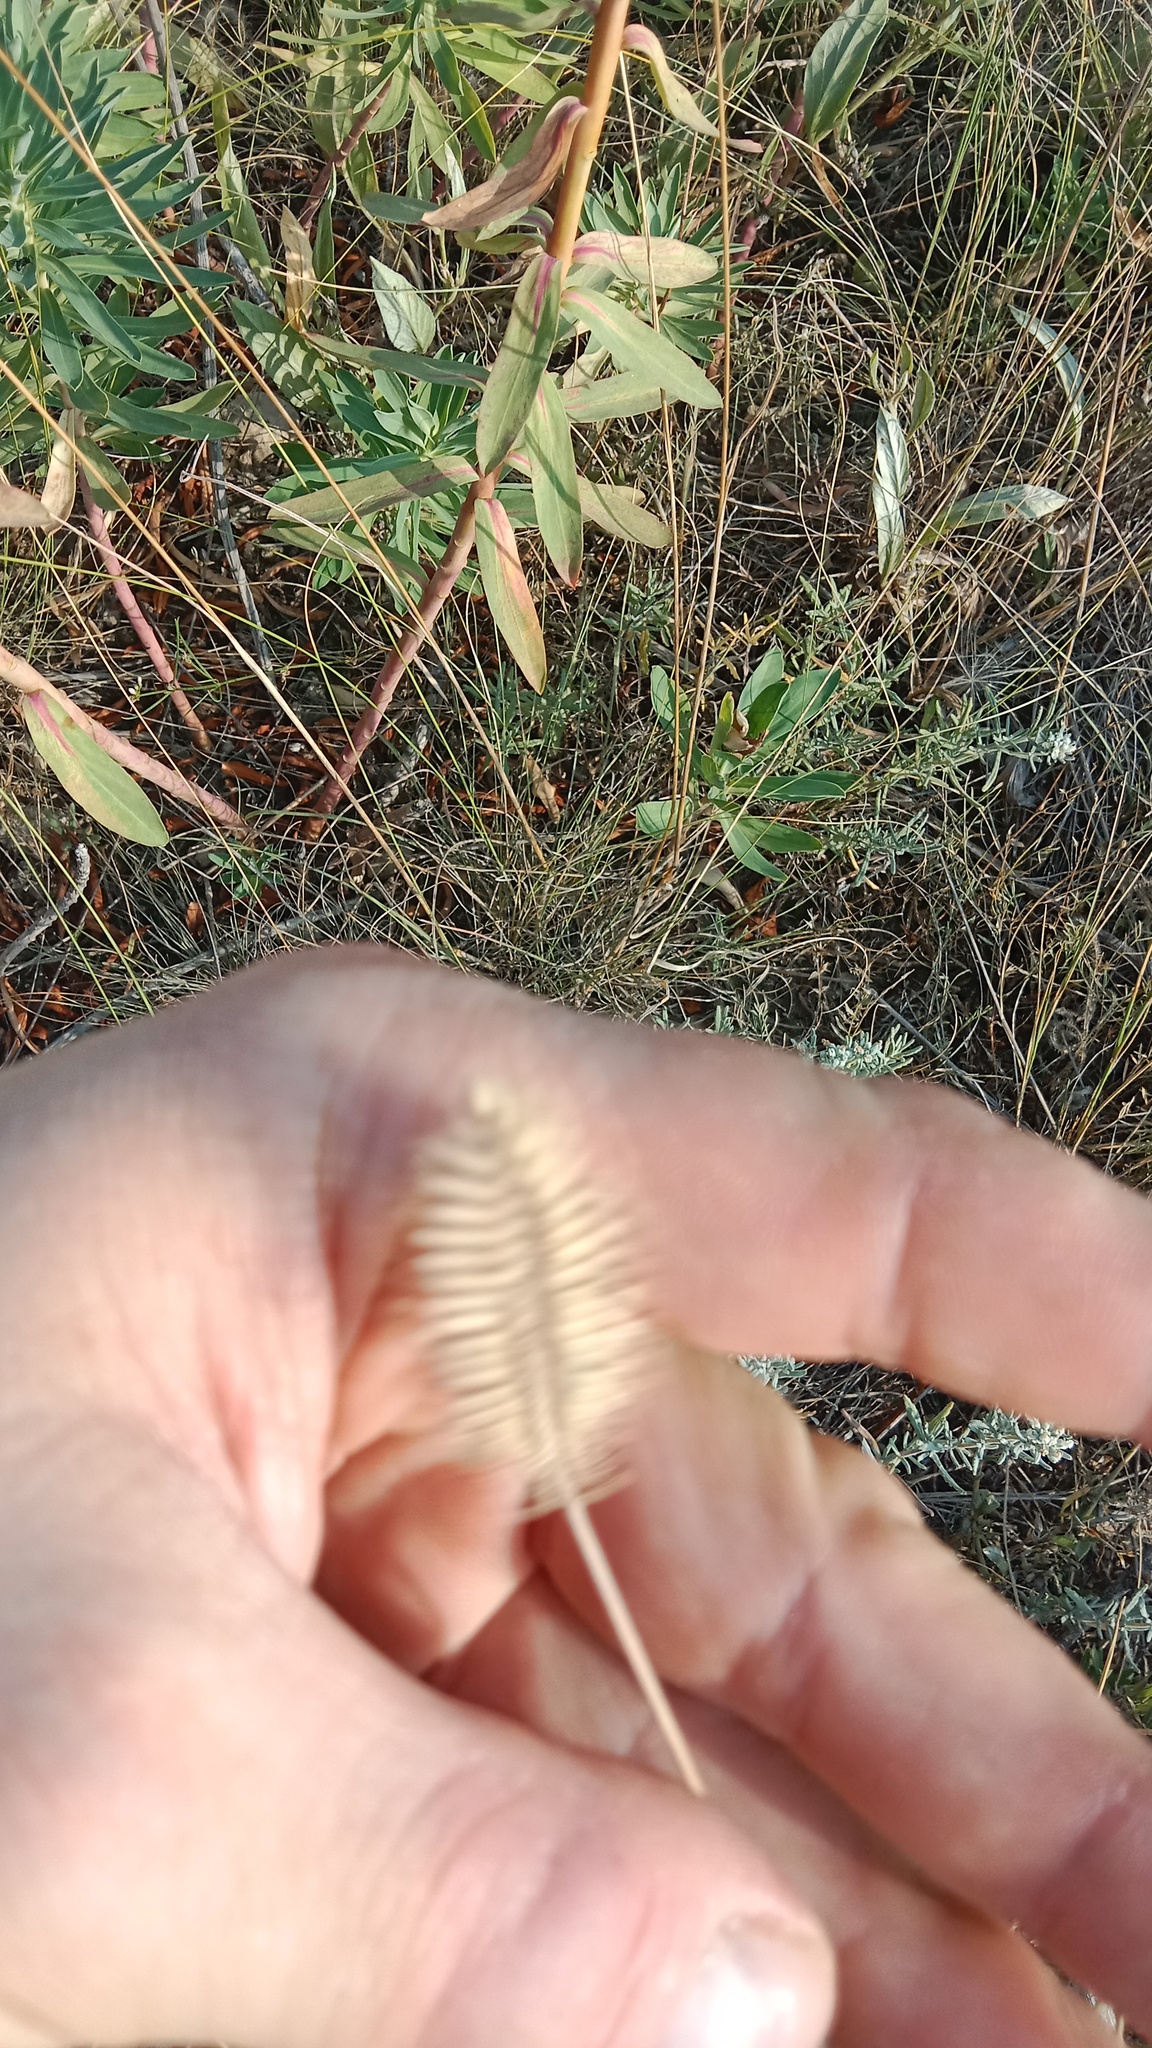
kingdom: Plantae
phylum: Tracheophyta
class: Liliopsida
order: Poales
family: Poaceae
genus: Agropyron
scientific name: Agropyron cristatum
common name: Crested wheatgrass
